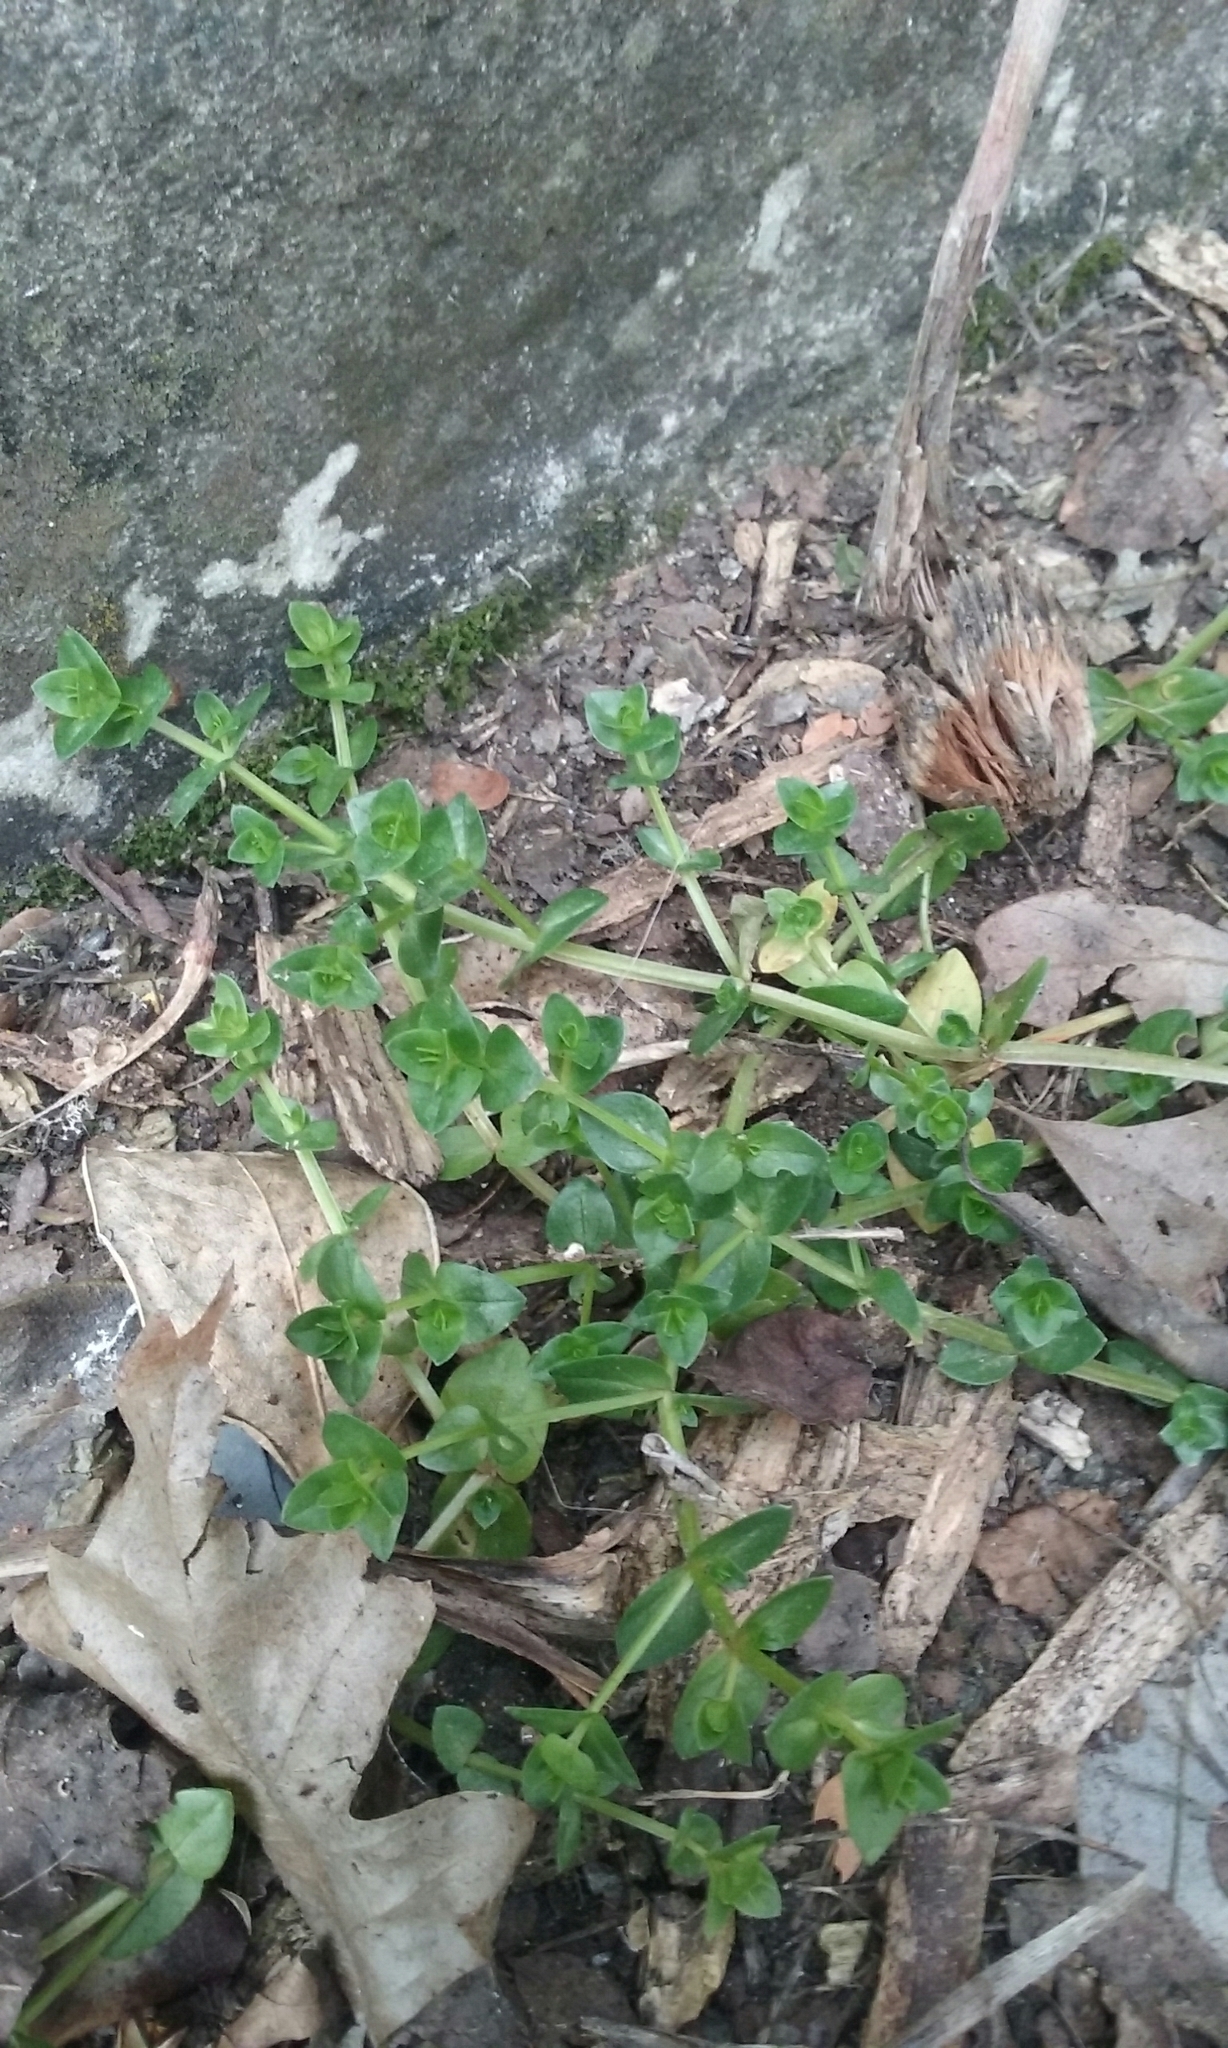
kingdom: Plantae
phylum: Tracheophyta
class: Magnoliopsida
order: Ericales
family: Primulaceae
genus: Lysimachia
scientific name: Lysimachia arvensis
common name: Scarlet pimpernel
